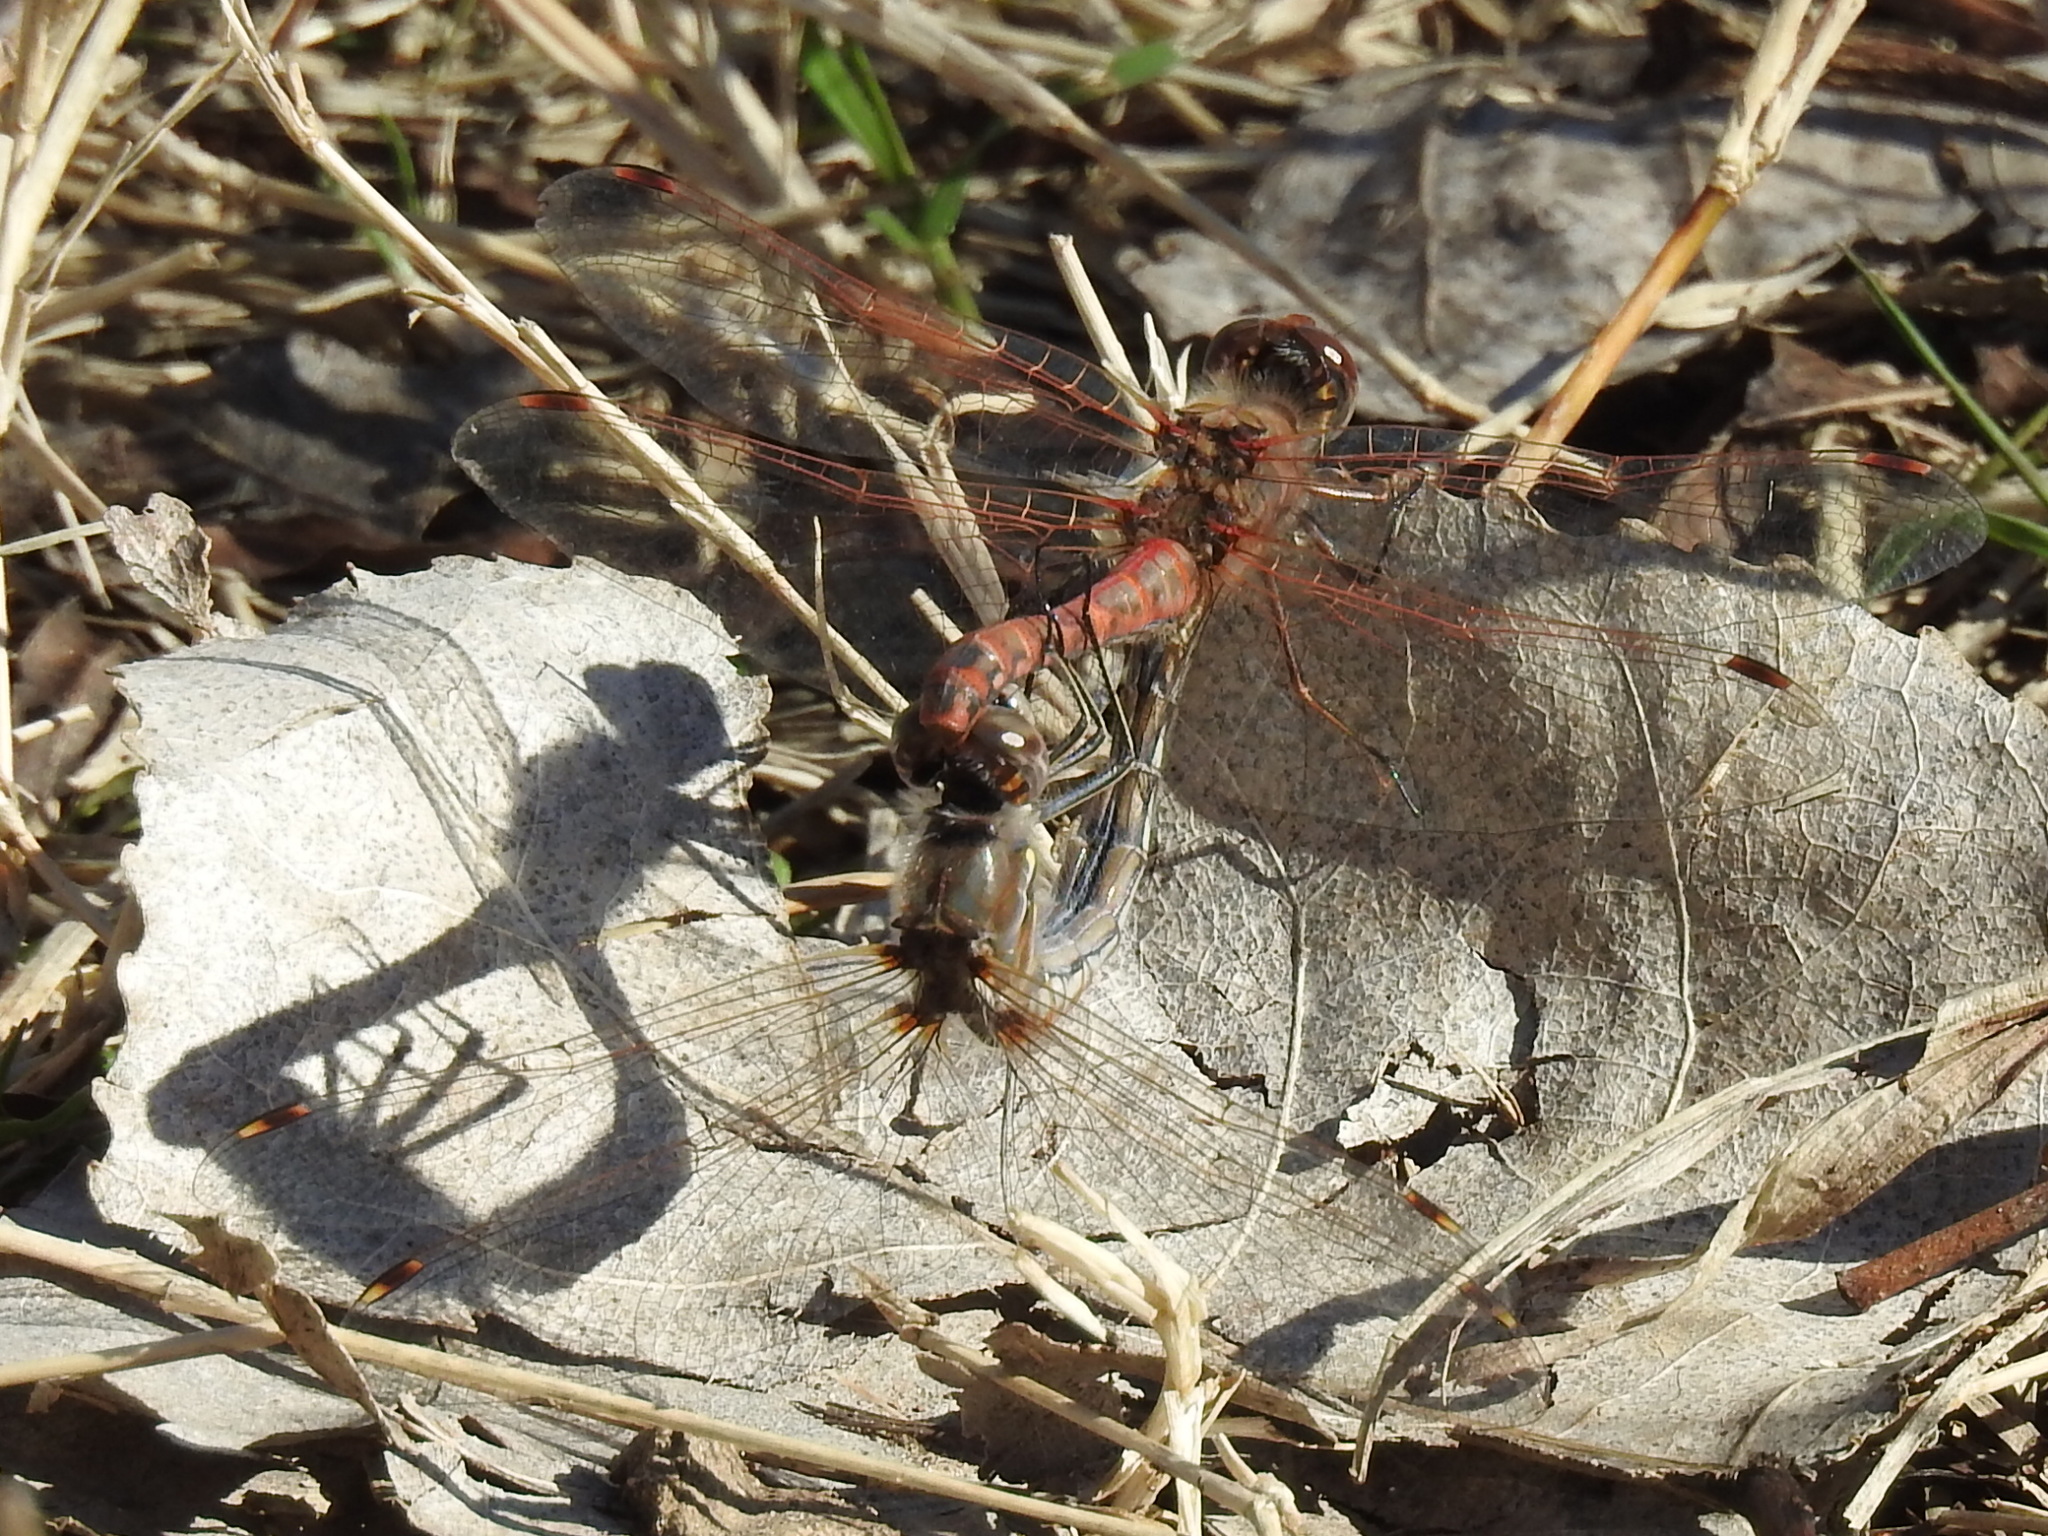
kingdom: Animalia
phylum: Arthropoda
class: Insecta
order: Odonata
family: Libellulidae
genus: Sympetrum
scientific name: Sympetrum corruptum
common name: Variegated meadowhawk
